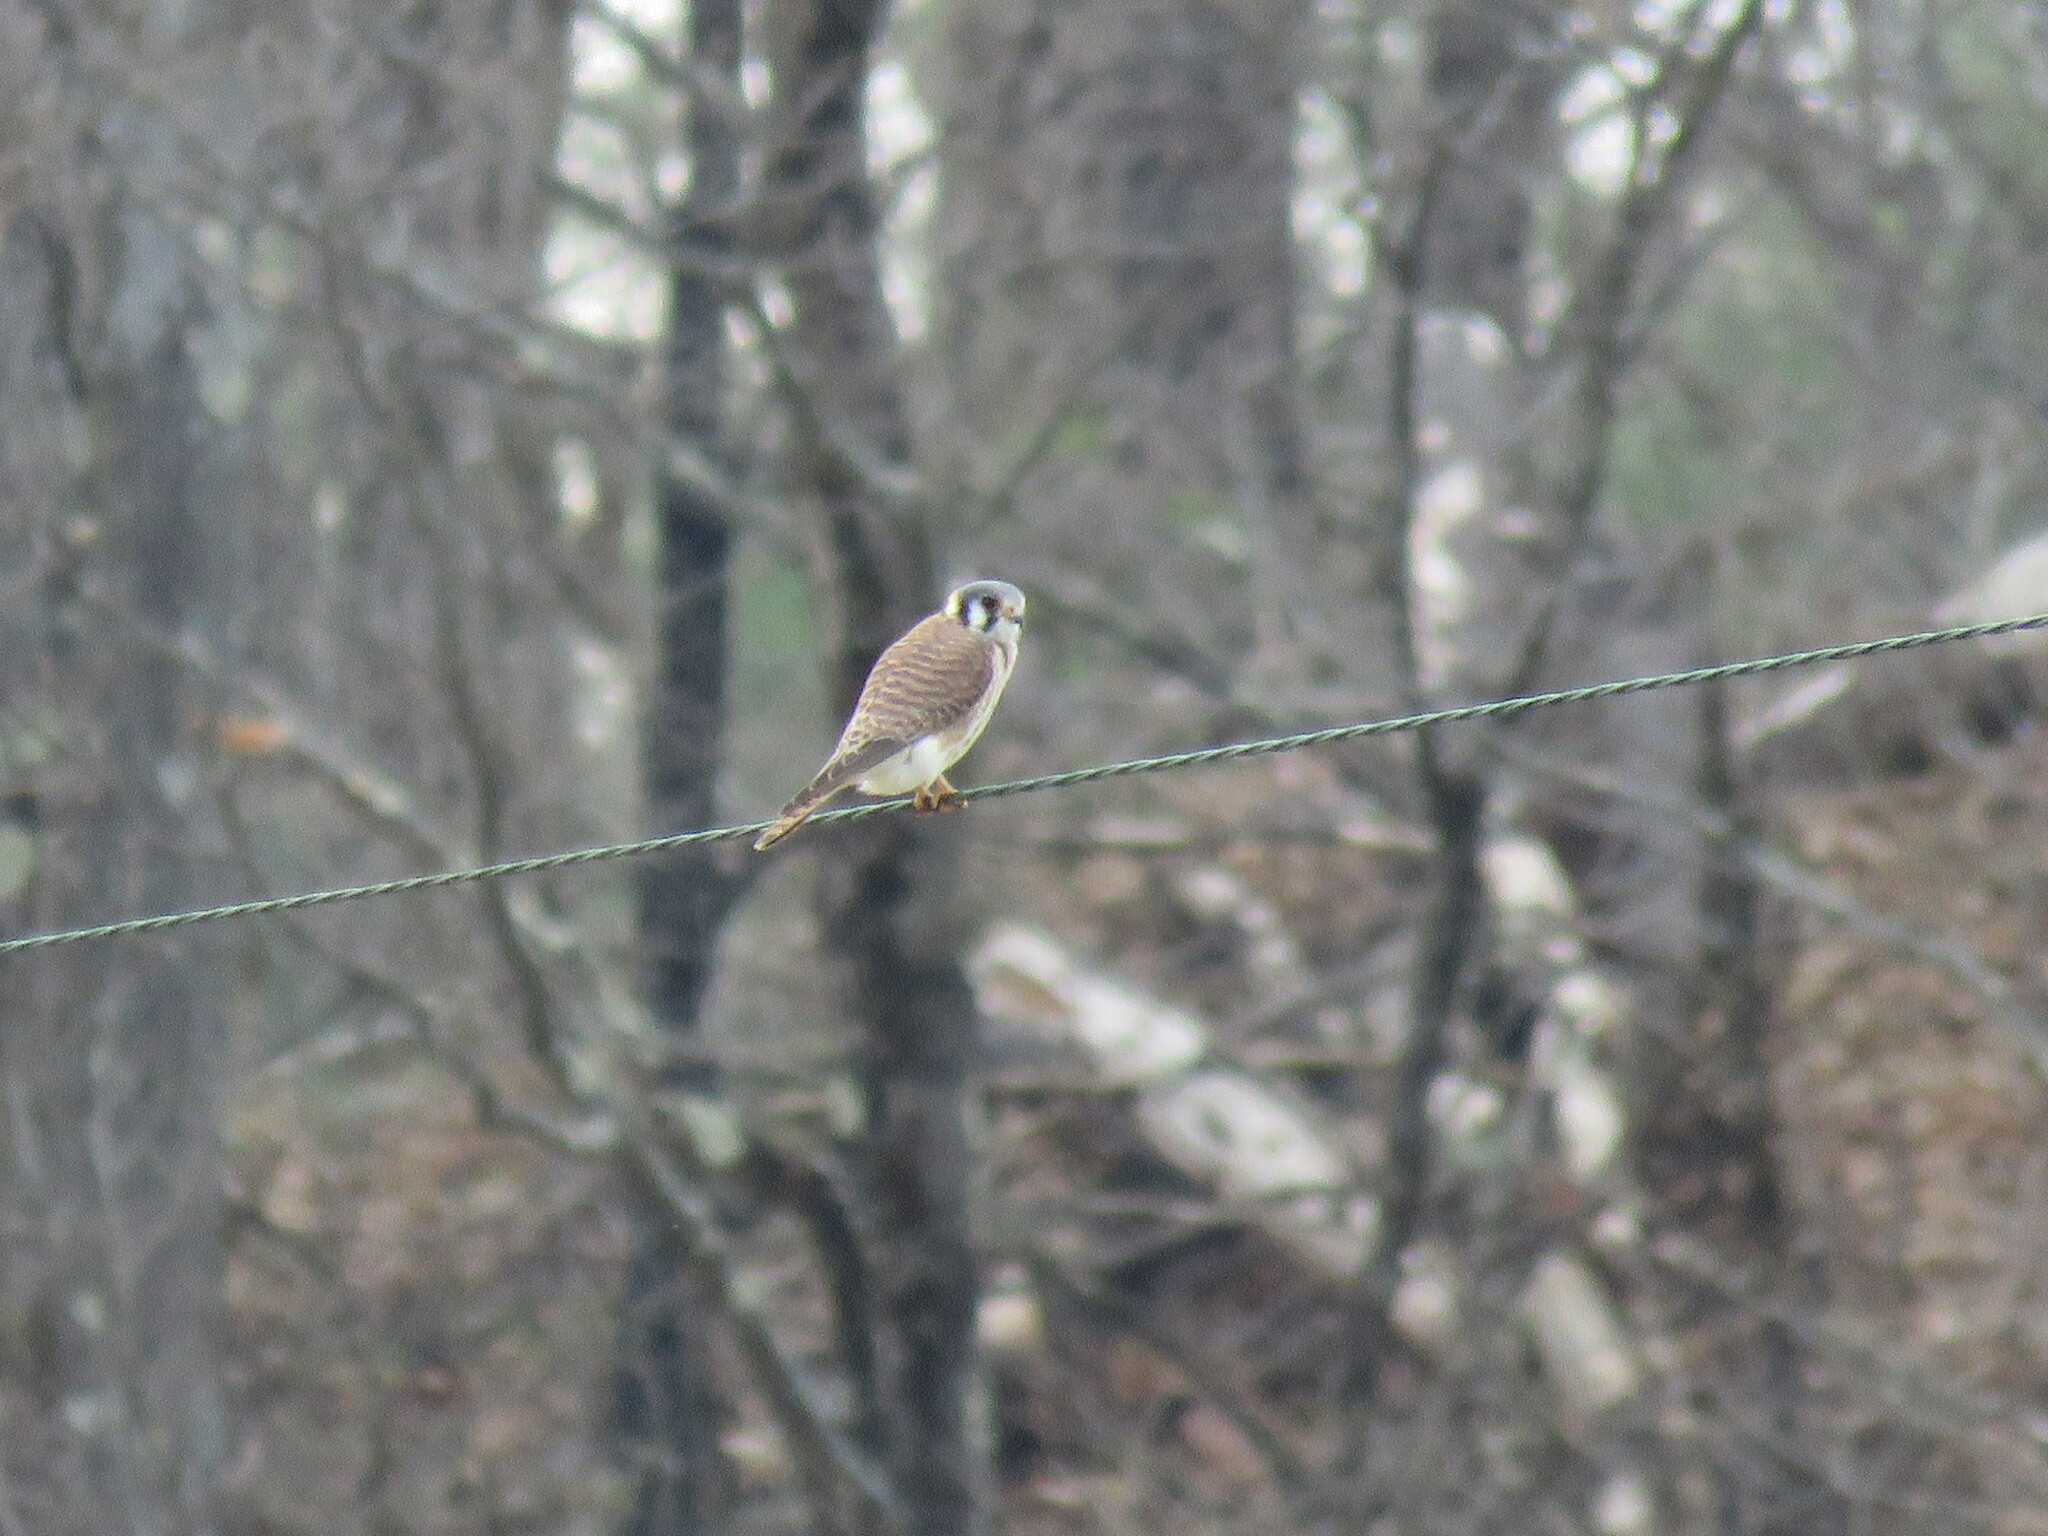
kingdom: Animalia
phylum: Chordata
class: Aves
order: Falconiformes
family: Falconidae
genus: Falco
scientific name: Falco sparverius
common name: American kestrel
